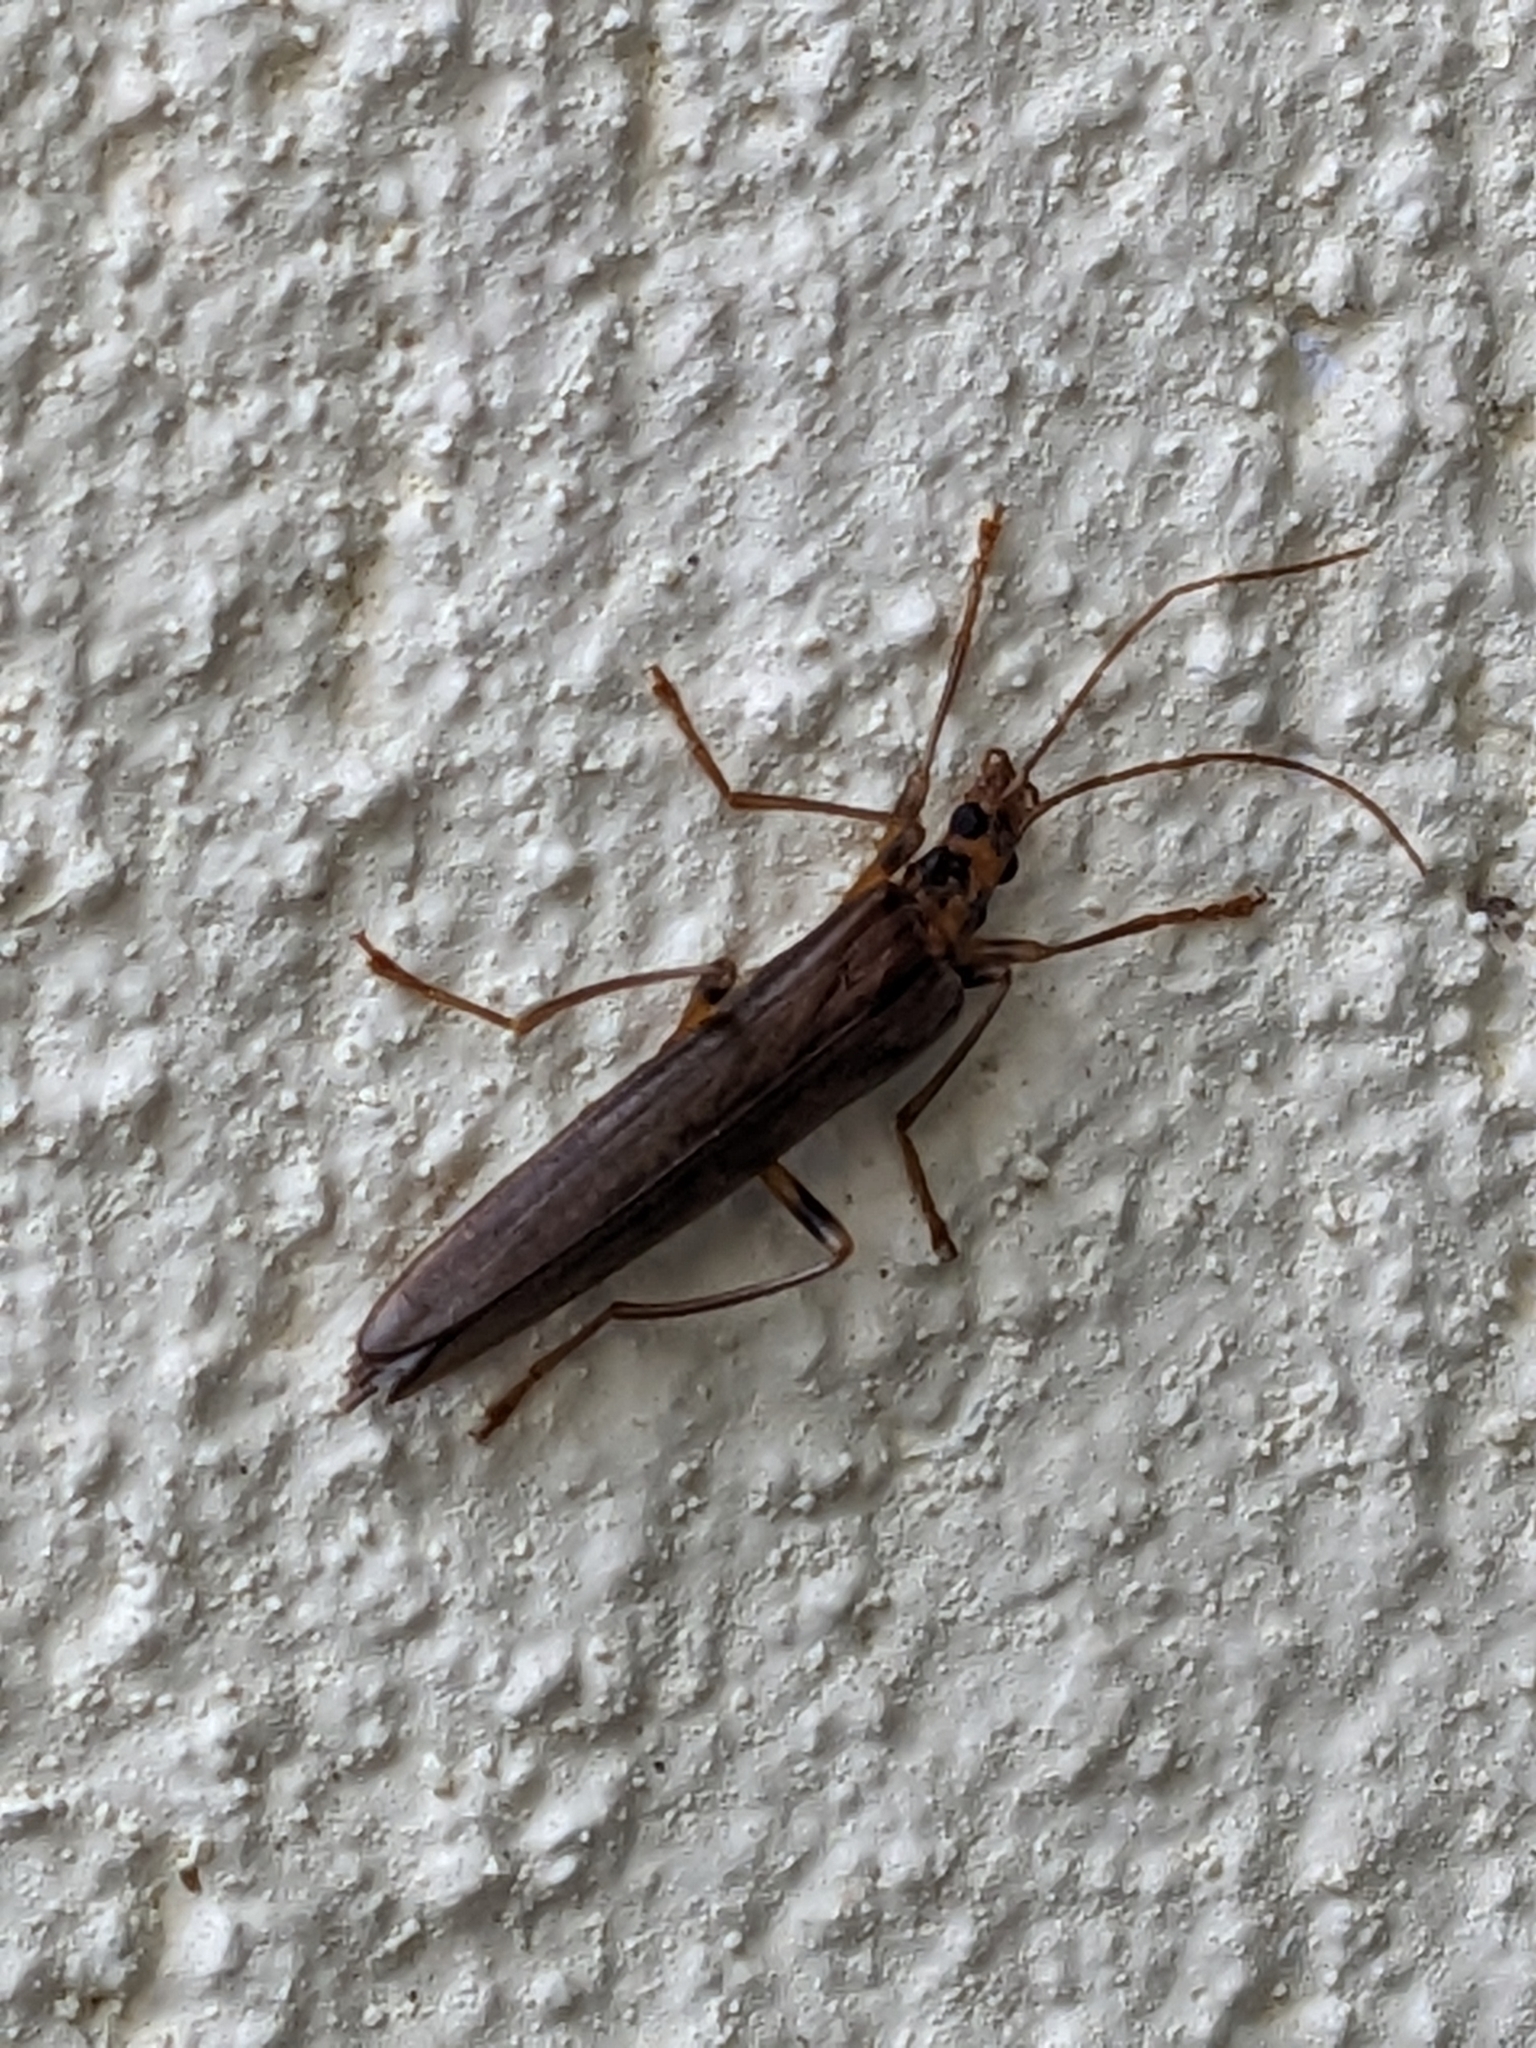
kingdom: Animalia
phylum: Arthropoda
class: Insecta
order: Coleoptera
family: Oedemeridae
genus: Oedemera
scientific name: Oedemera femoralis
